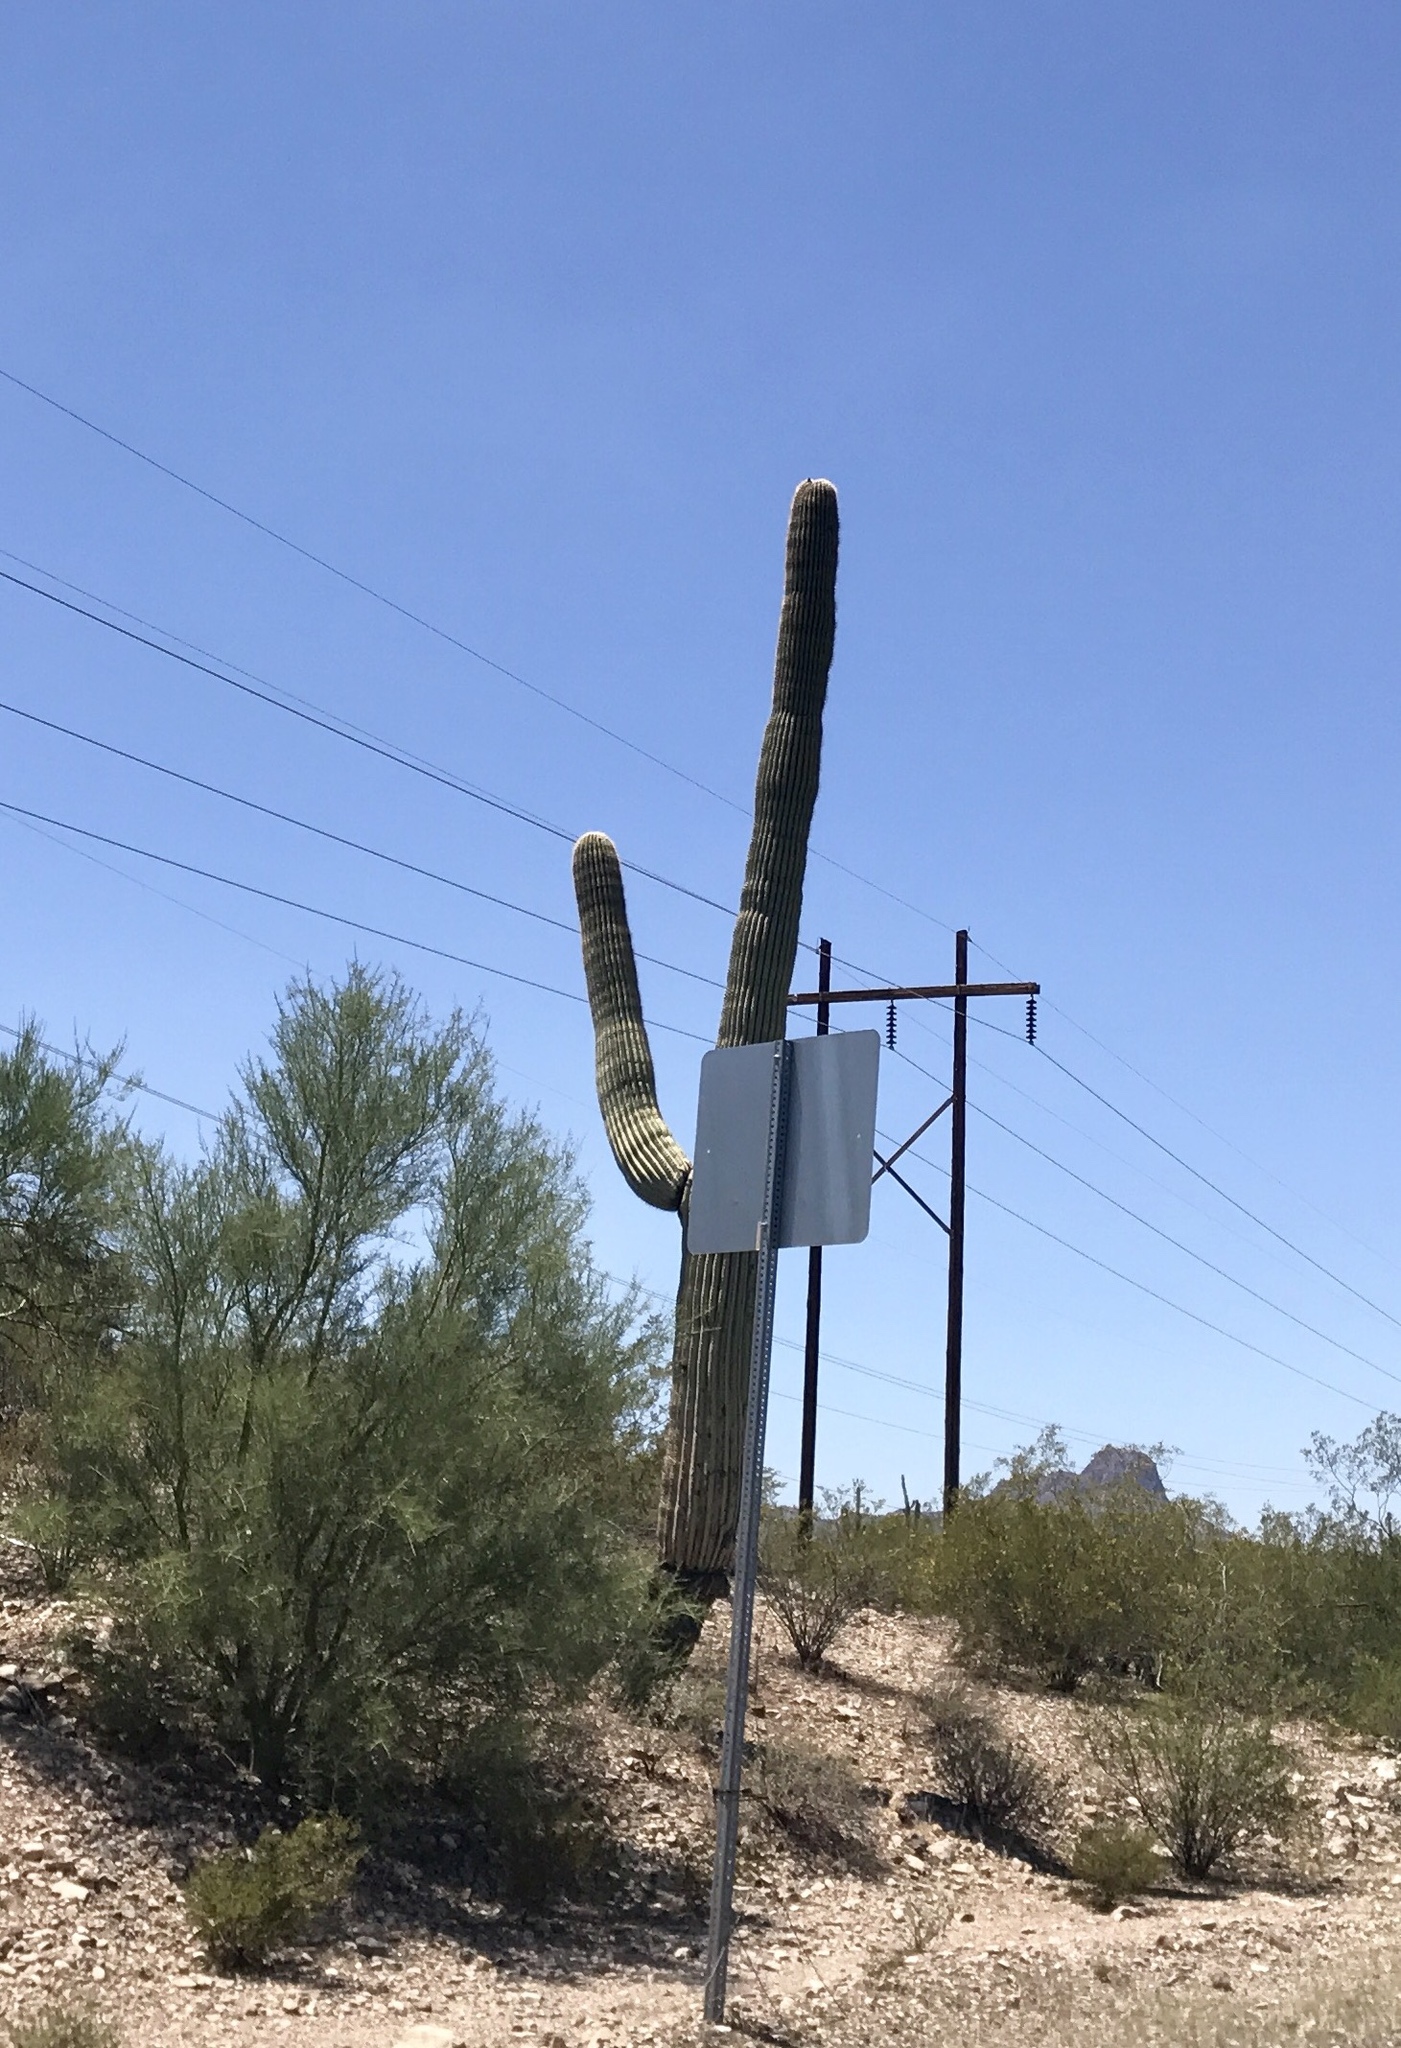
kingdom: Plantae
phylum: Tracheophyta
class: Magnoliopsida
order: Caryophyllales
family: Cactaceae
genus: Carnegiea
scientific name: Carnegiea gigantea
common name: Saguaro
